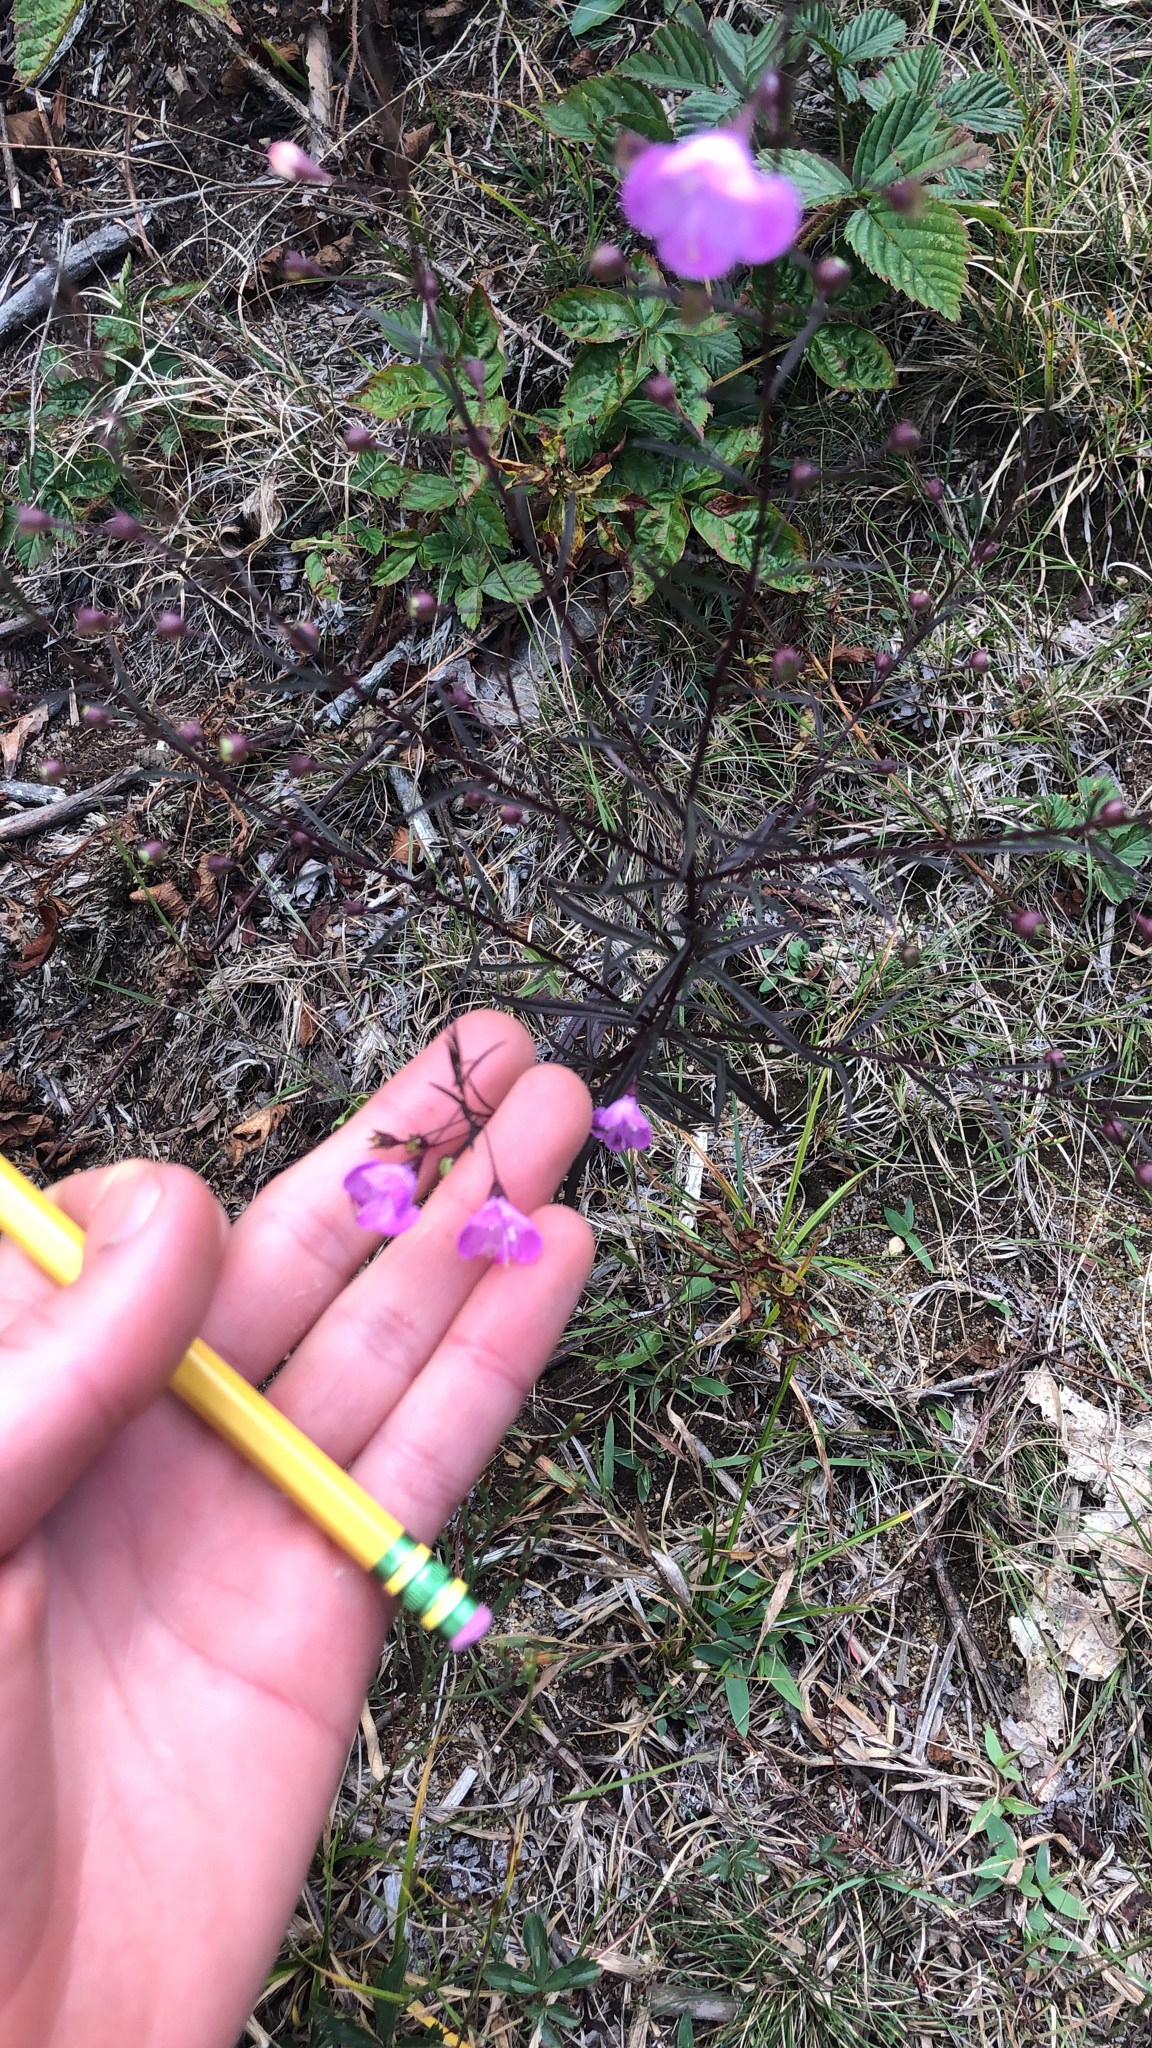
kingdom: Plantae
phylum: Tracheophyta
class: Magnoliopsida
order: Lamiales
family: Orobanchaceae
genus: Agalinis
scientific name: Agalinis tenuifolia
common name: Slender agalinis
